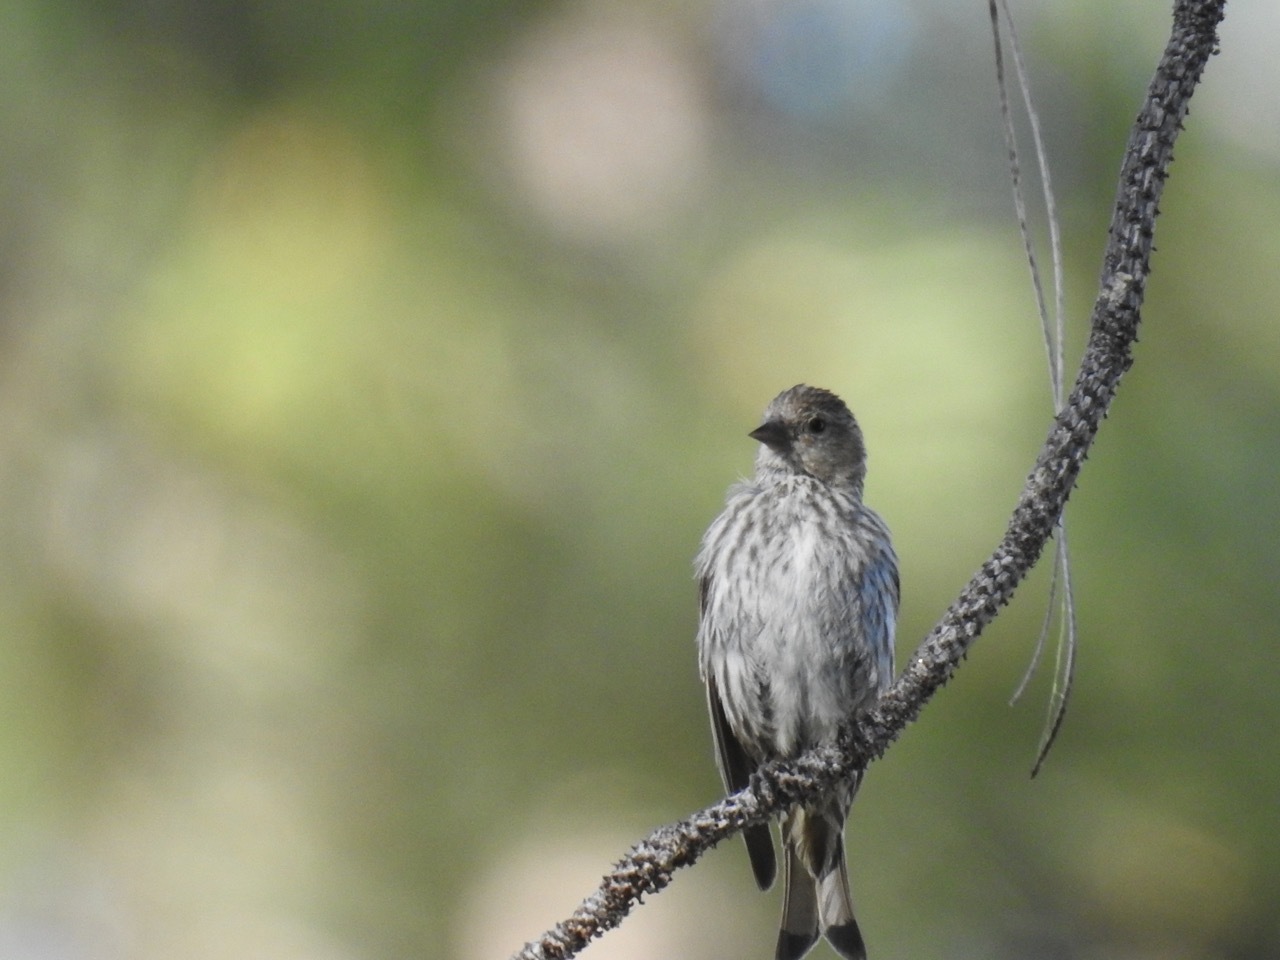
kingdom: Animalia
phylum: Chordata
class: Aves
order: Passeriformes
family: Fringillidae
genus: Spinus
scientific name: Spinus pinus
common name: Pine siskin
